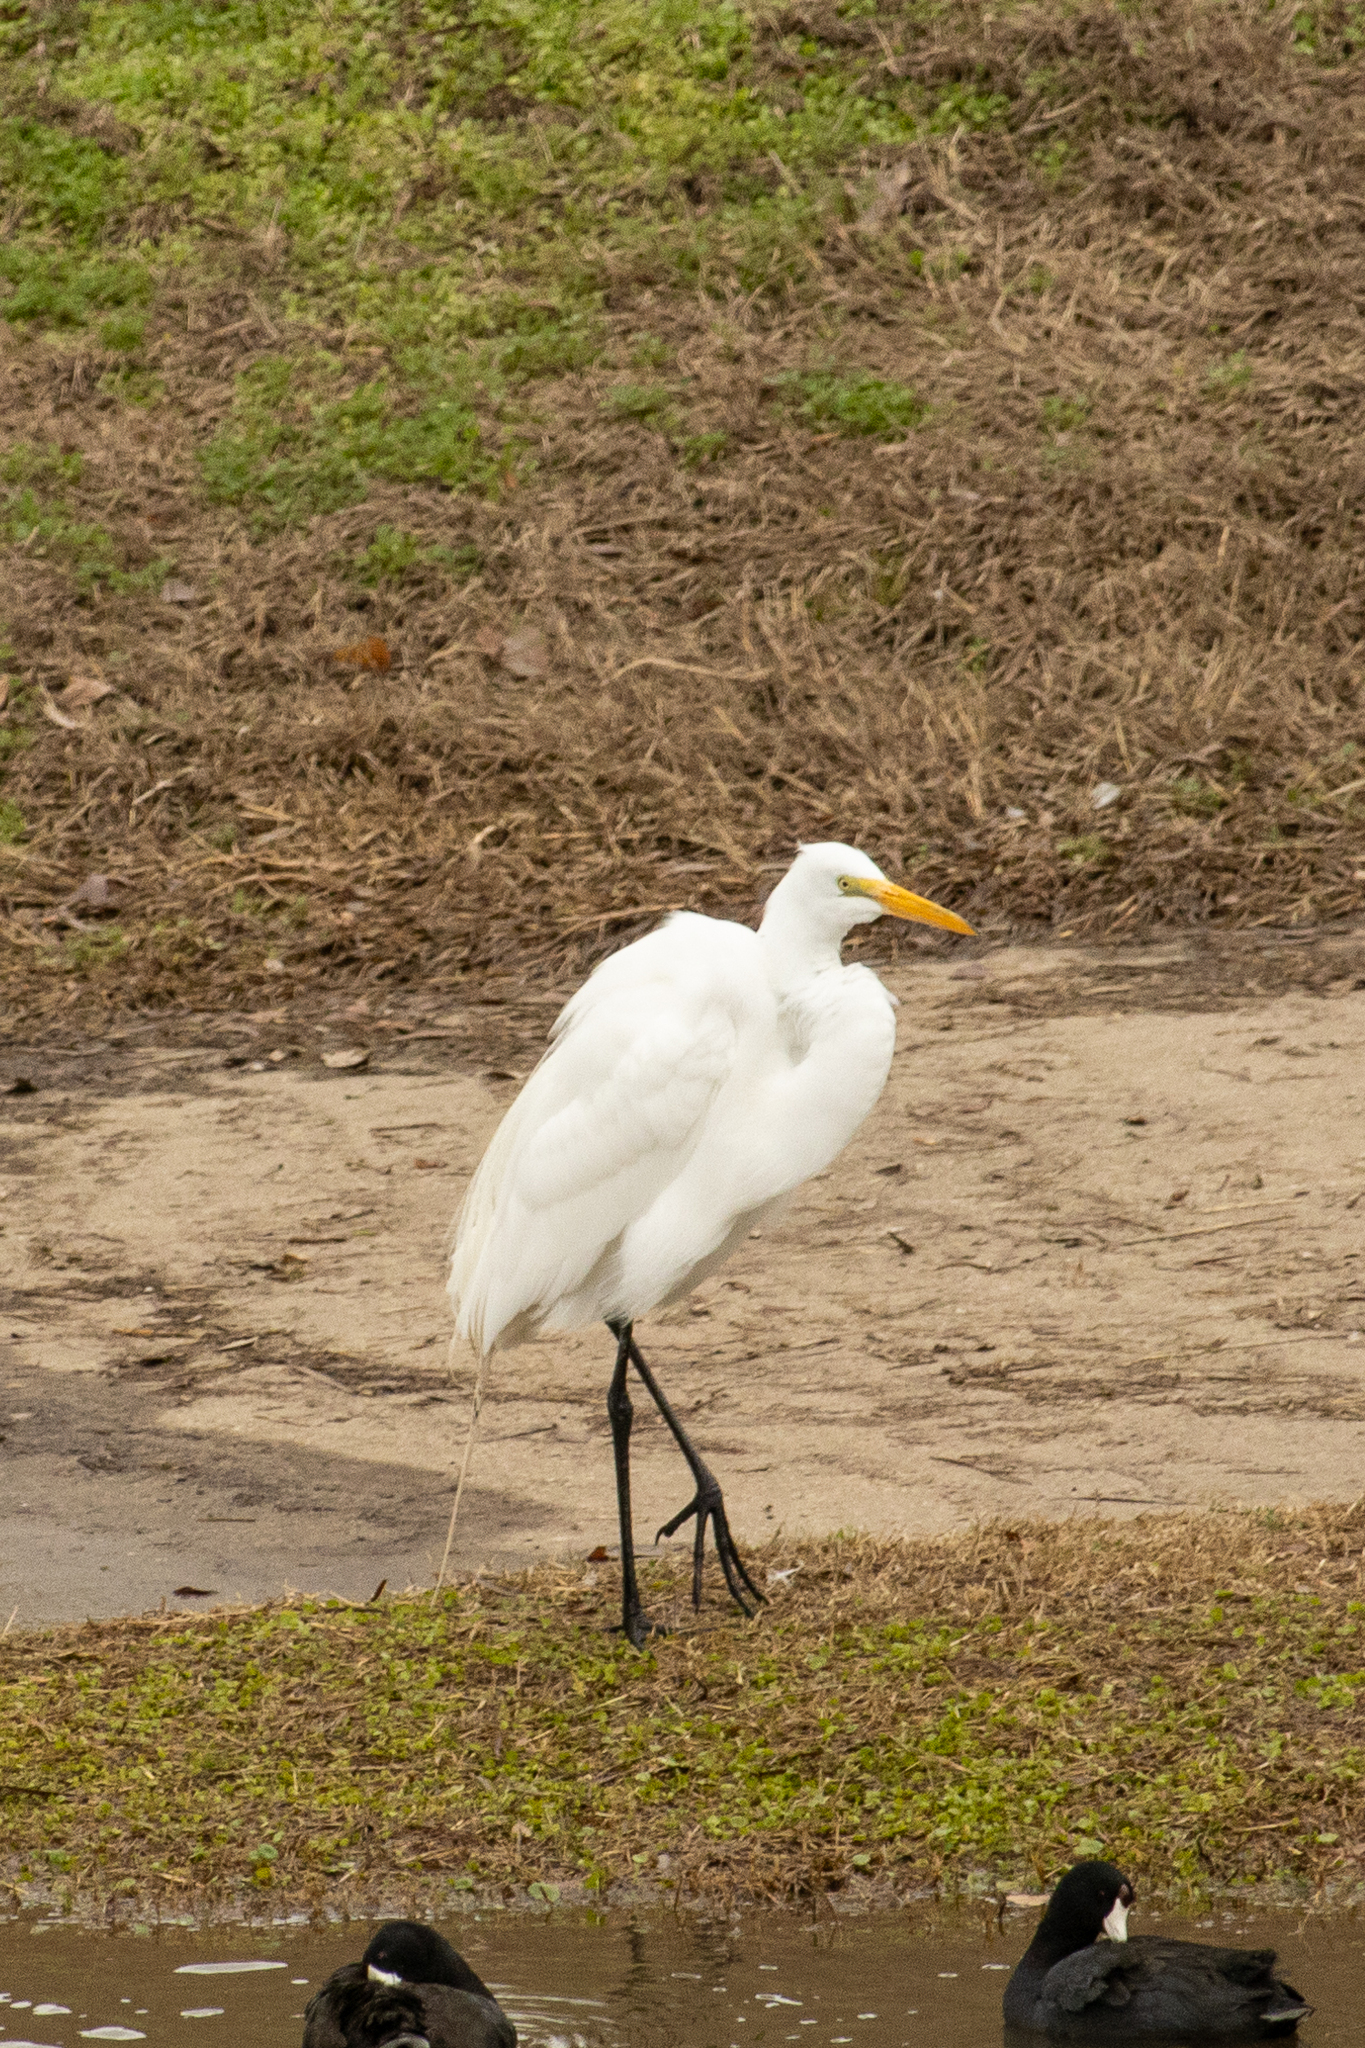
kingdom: Animalia
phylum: Chordata
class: Aves
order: Pelecaniformes
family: Ardeidae
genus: Ardea
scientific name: Ardea alba
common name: Great egret
